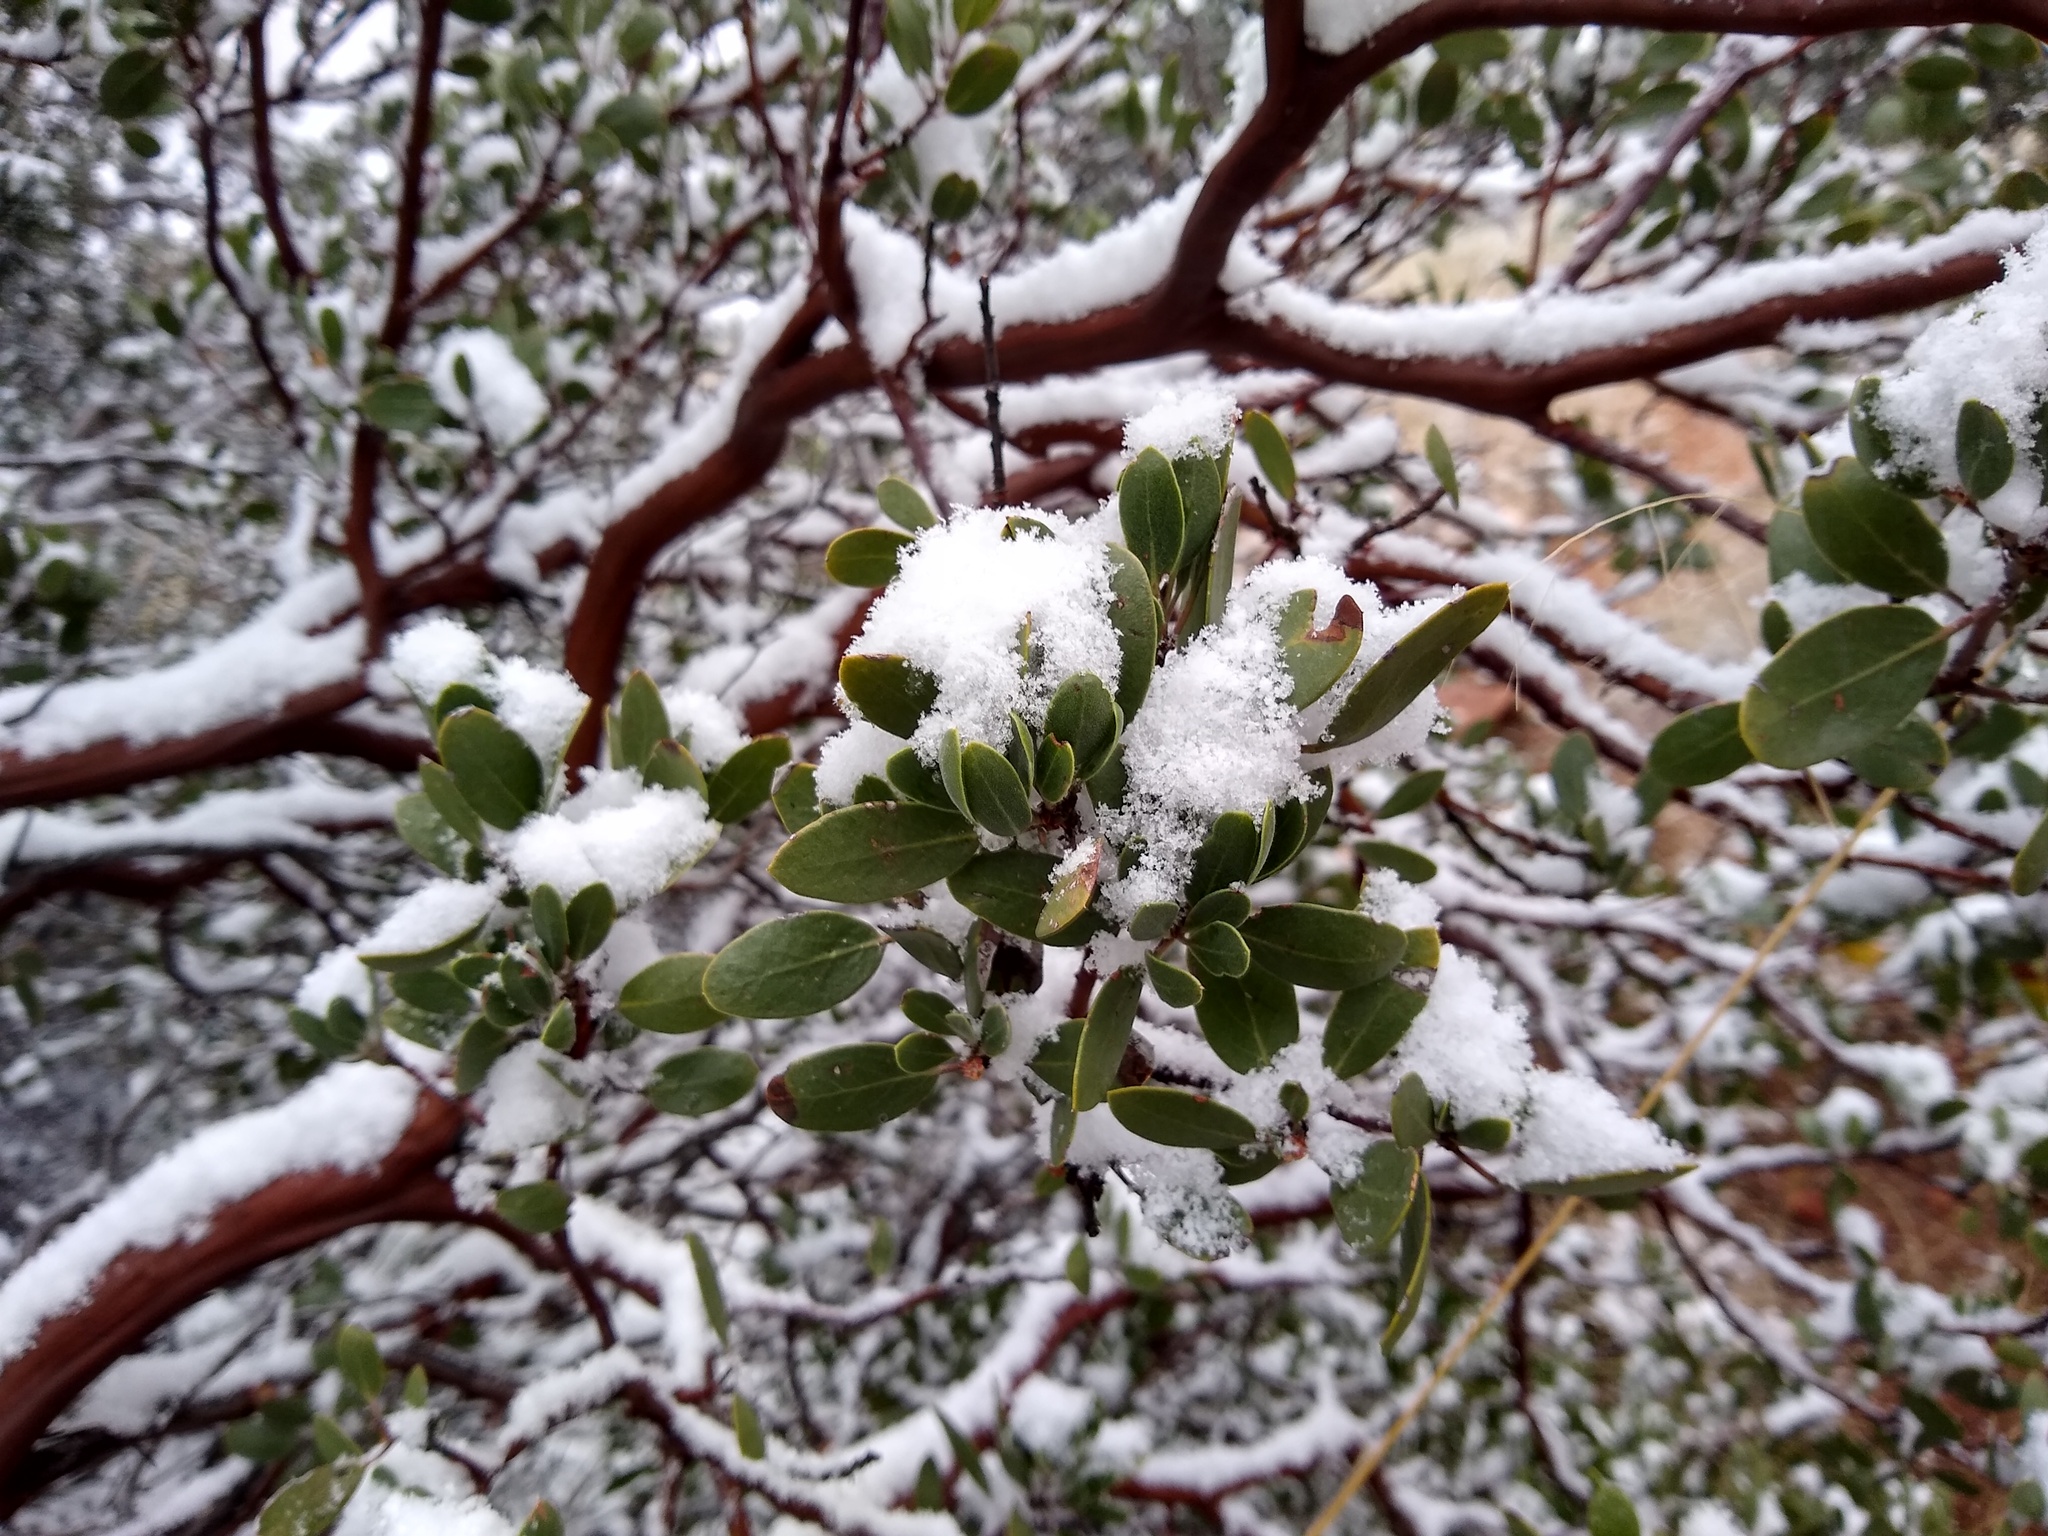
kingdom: Plantae
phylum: Tracheophyta
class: Magnoliopsida
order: Ericales
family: Ericaceae
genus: Arctostaphylos
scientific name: Arctostaphylos pungens
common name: Mexican manzanita
